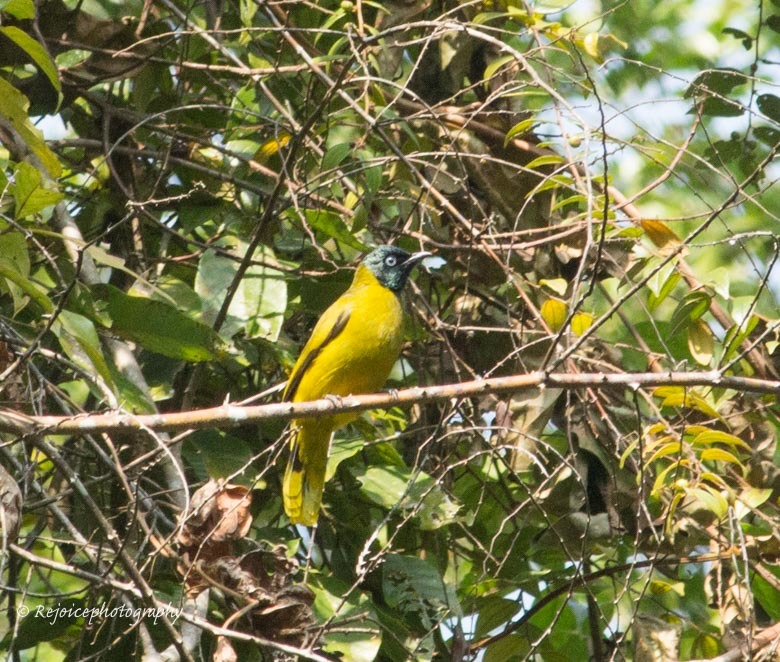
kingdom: Animalia
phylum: Chordata
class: Aves
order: Passeriformes
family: Pycnonotidae
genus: Microtarsus
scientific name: Microtarsus
